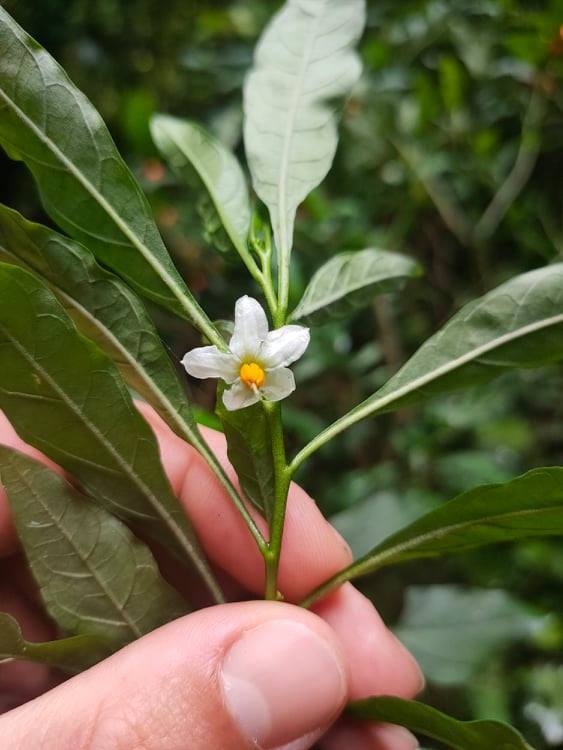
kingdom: Plantae
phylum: Tracheophyta
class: Magnoliopsida
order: Solanales
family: Solanaceae
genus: Solanum
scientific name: Solanum pseudocapsicum
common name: Jerusalem cherry
